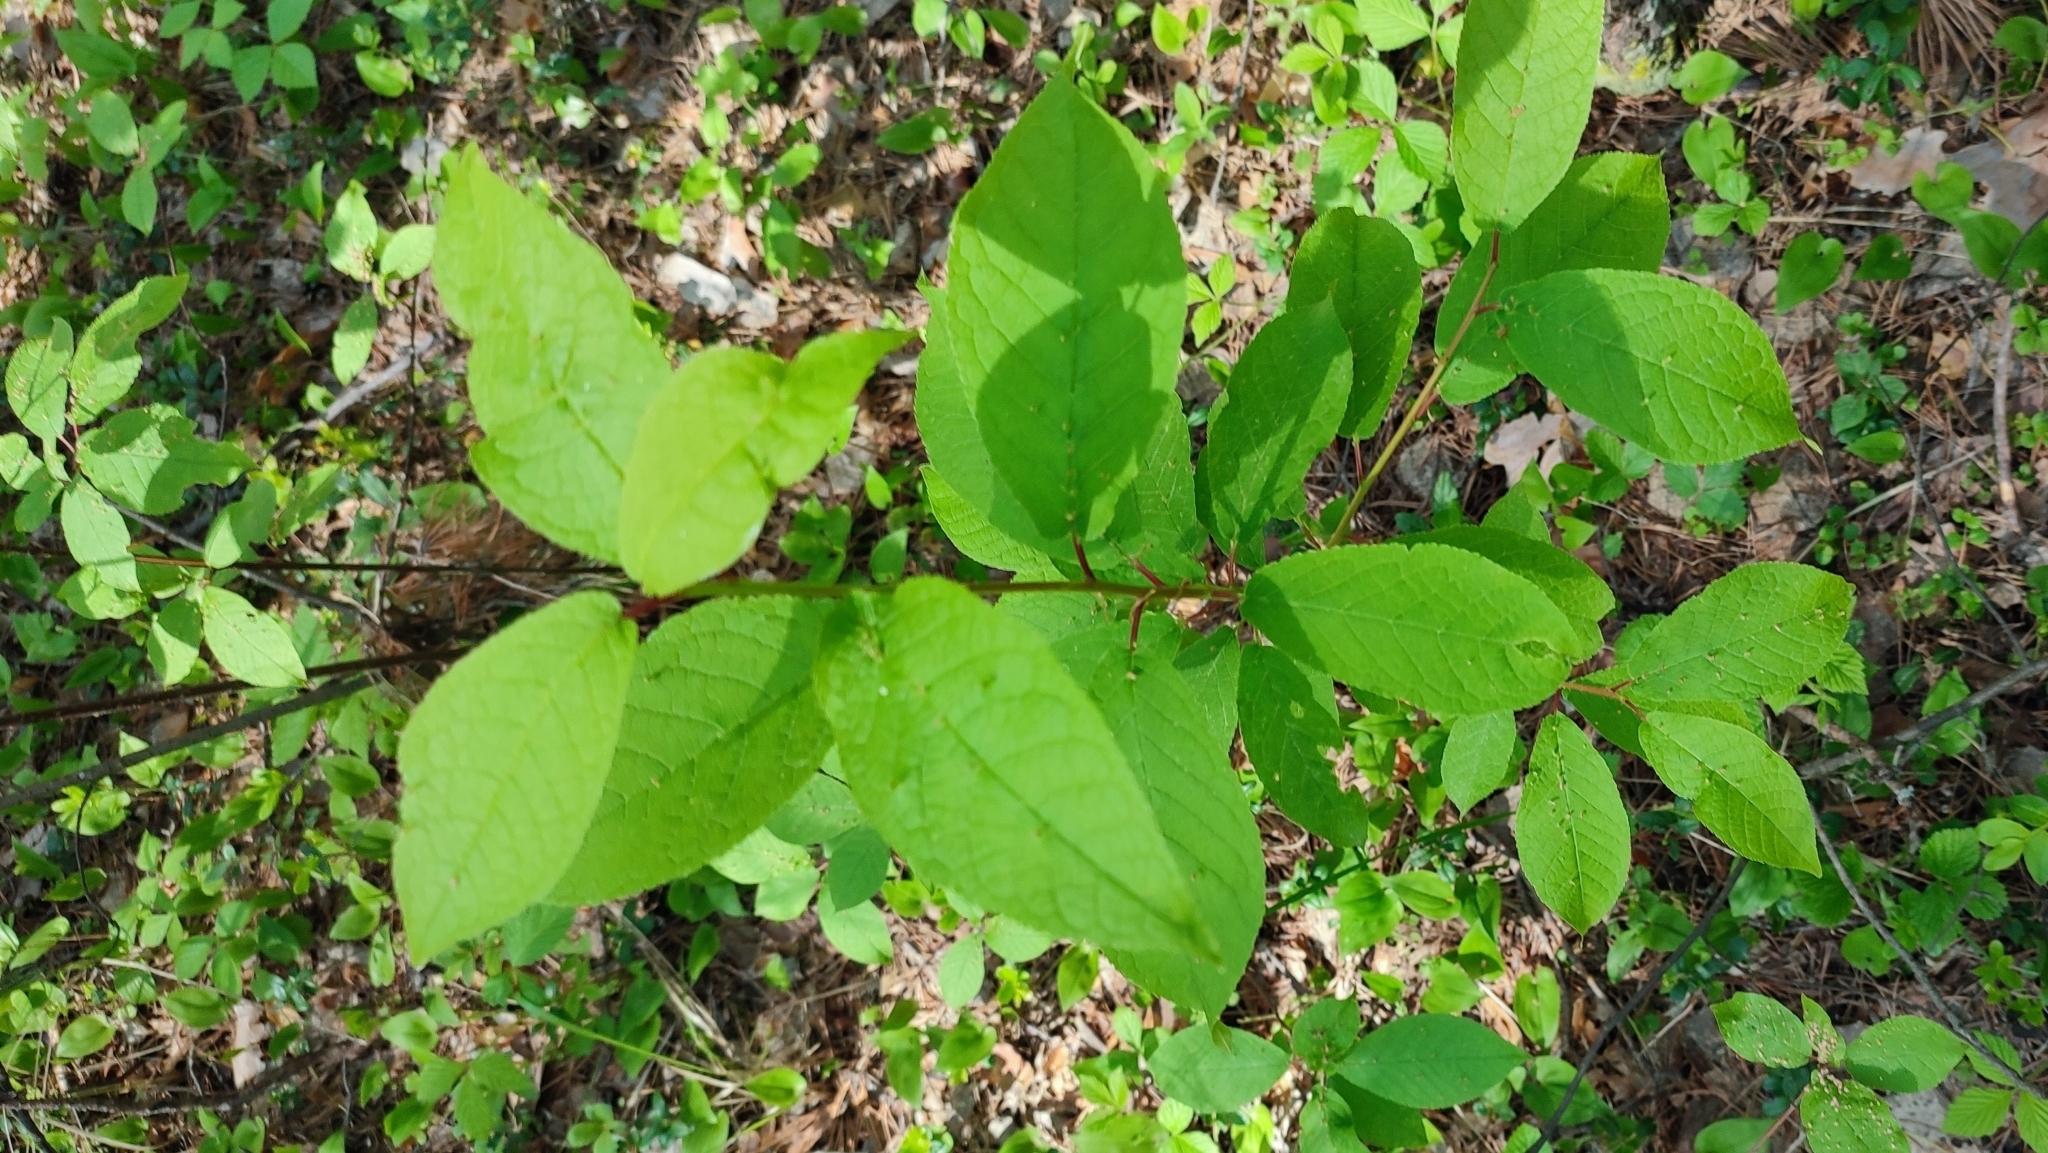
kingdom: Plantae
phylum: Tracheophyta
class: Magnoliopsida
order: Rosales
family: Rosaceae
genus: Prunus
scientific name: Prunus padus
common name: Bird cherry
